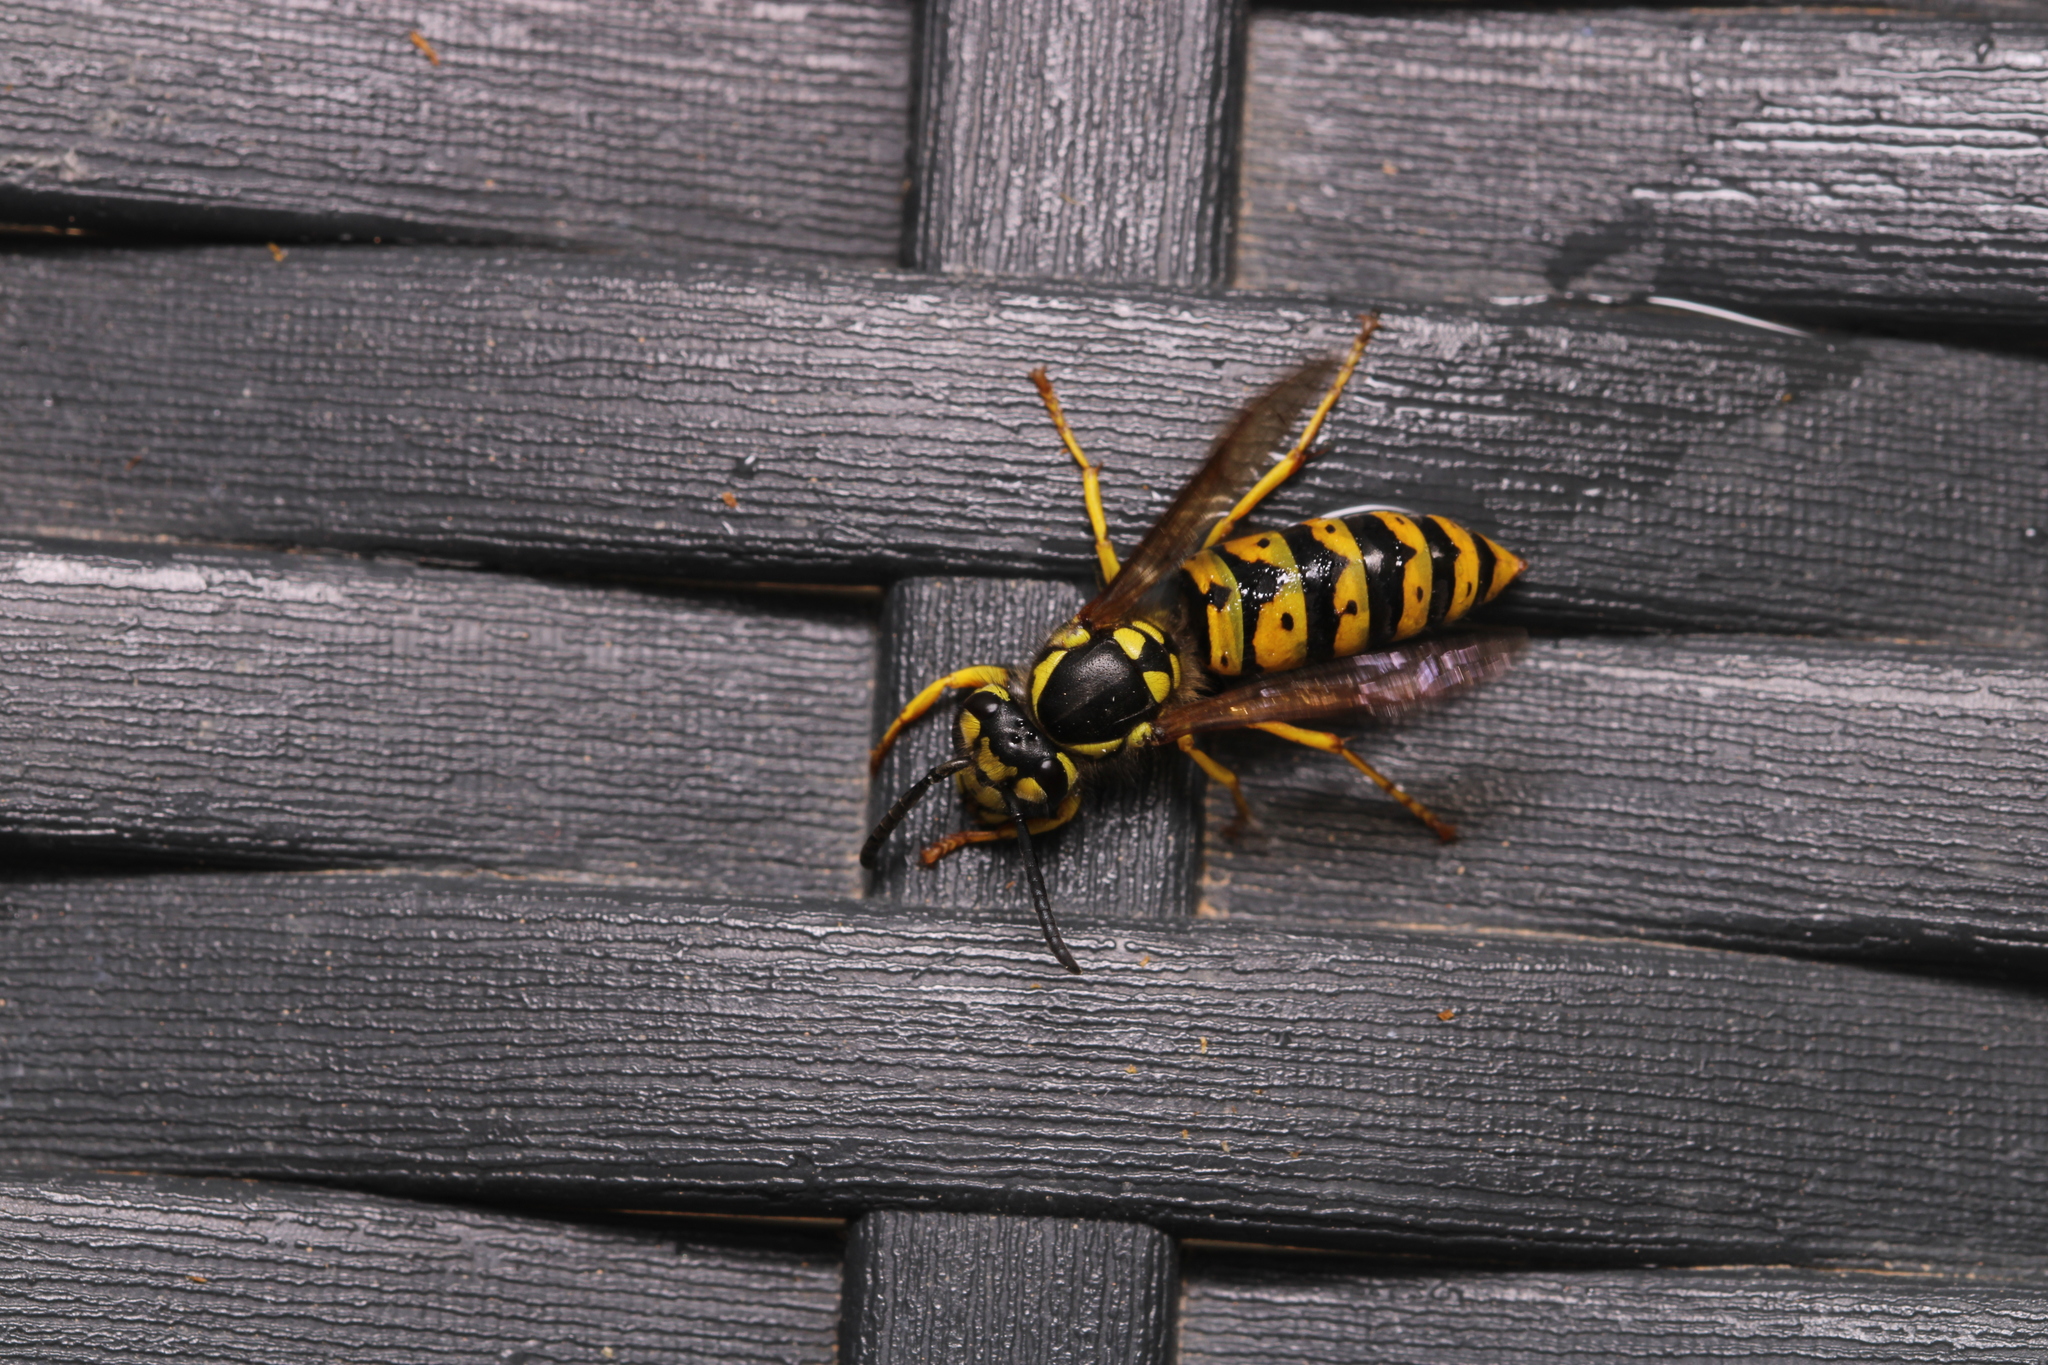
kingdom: Animalia
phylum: Arthropoda
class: Insecta
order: Hymenoptera
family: Vespidae
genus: Vespula
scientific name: Vespula germanica
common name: German wasp
